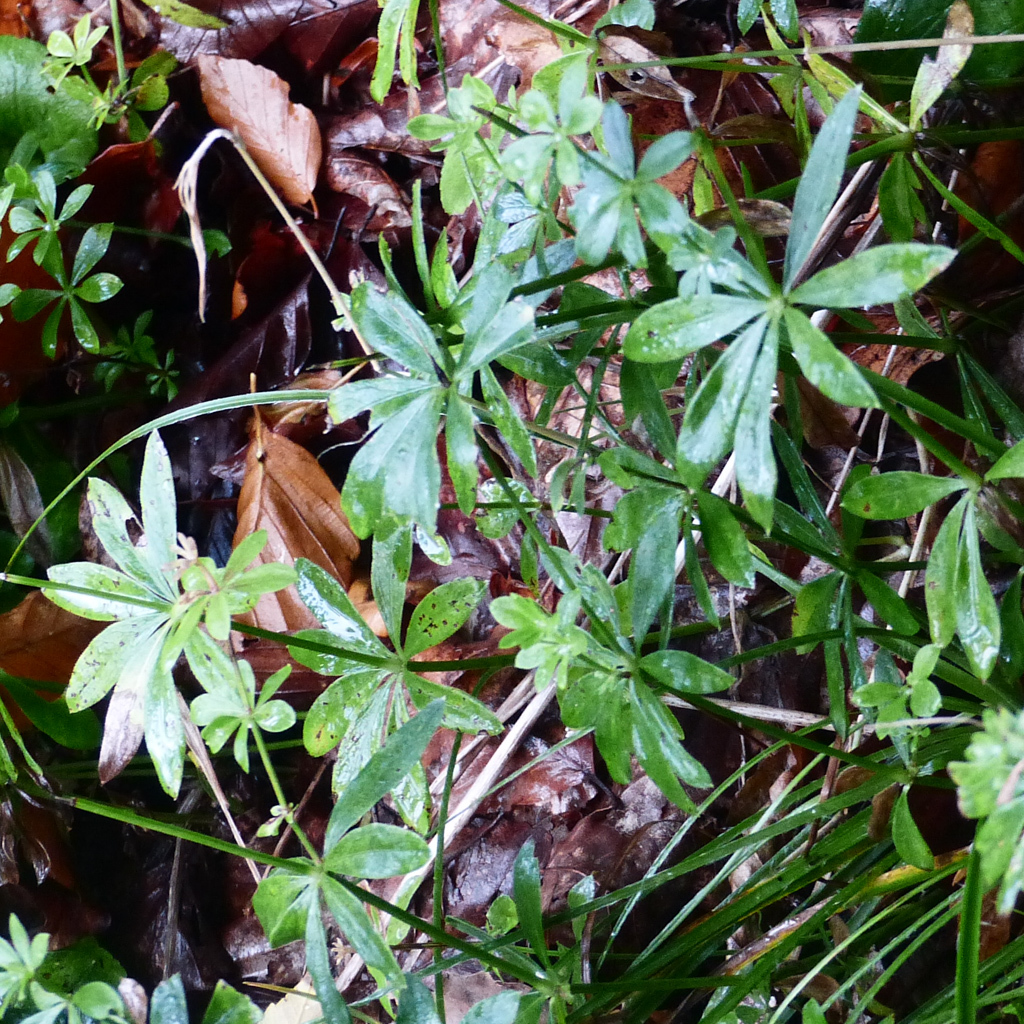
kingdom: Plantae
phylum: Tracheophyta
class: Magnoliopsida
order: Gentianales
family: Rubiaceae
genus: Galium
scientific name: Galium odoratum
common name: Sweet woodruff
